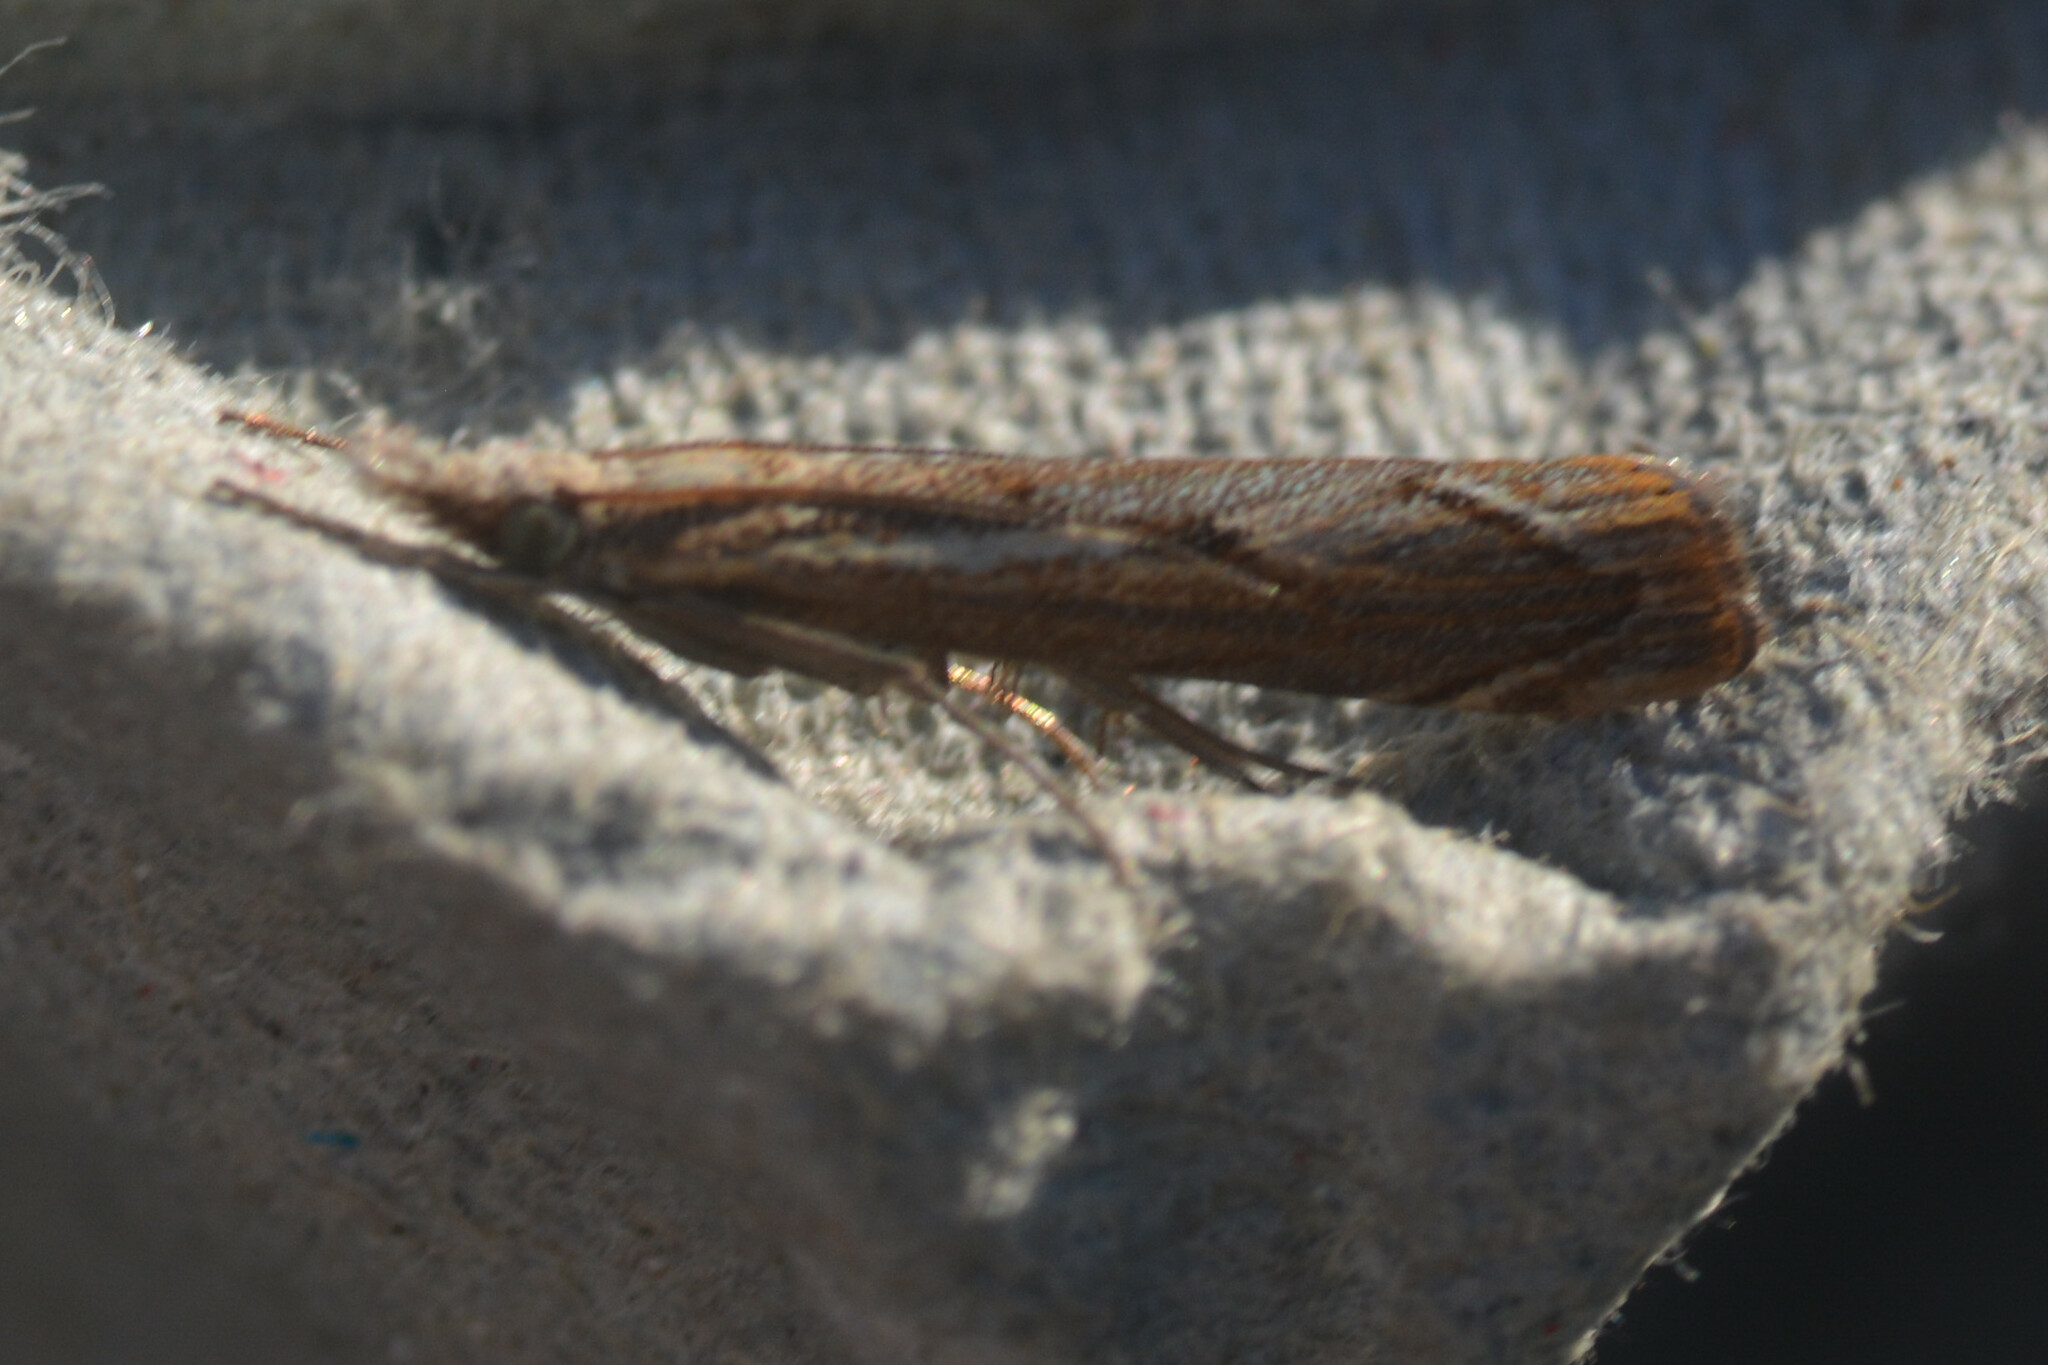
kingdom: Animalia
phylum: Arthropoda
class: Insecta
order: Lepidoptera
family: Crambidae
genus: Agriphila
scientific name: Agriphila geniculea
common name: Elbow-stripe grass-veneer
